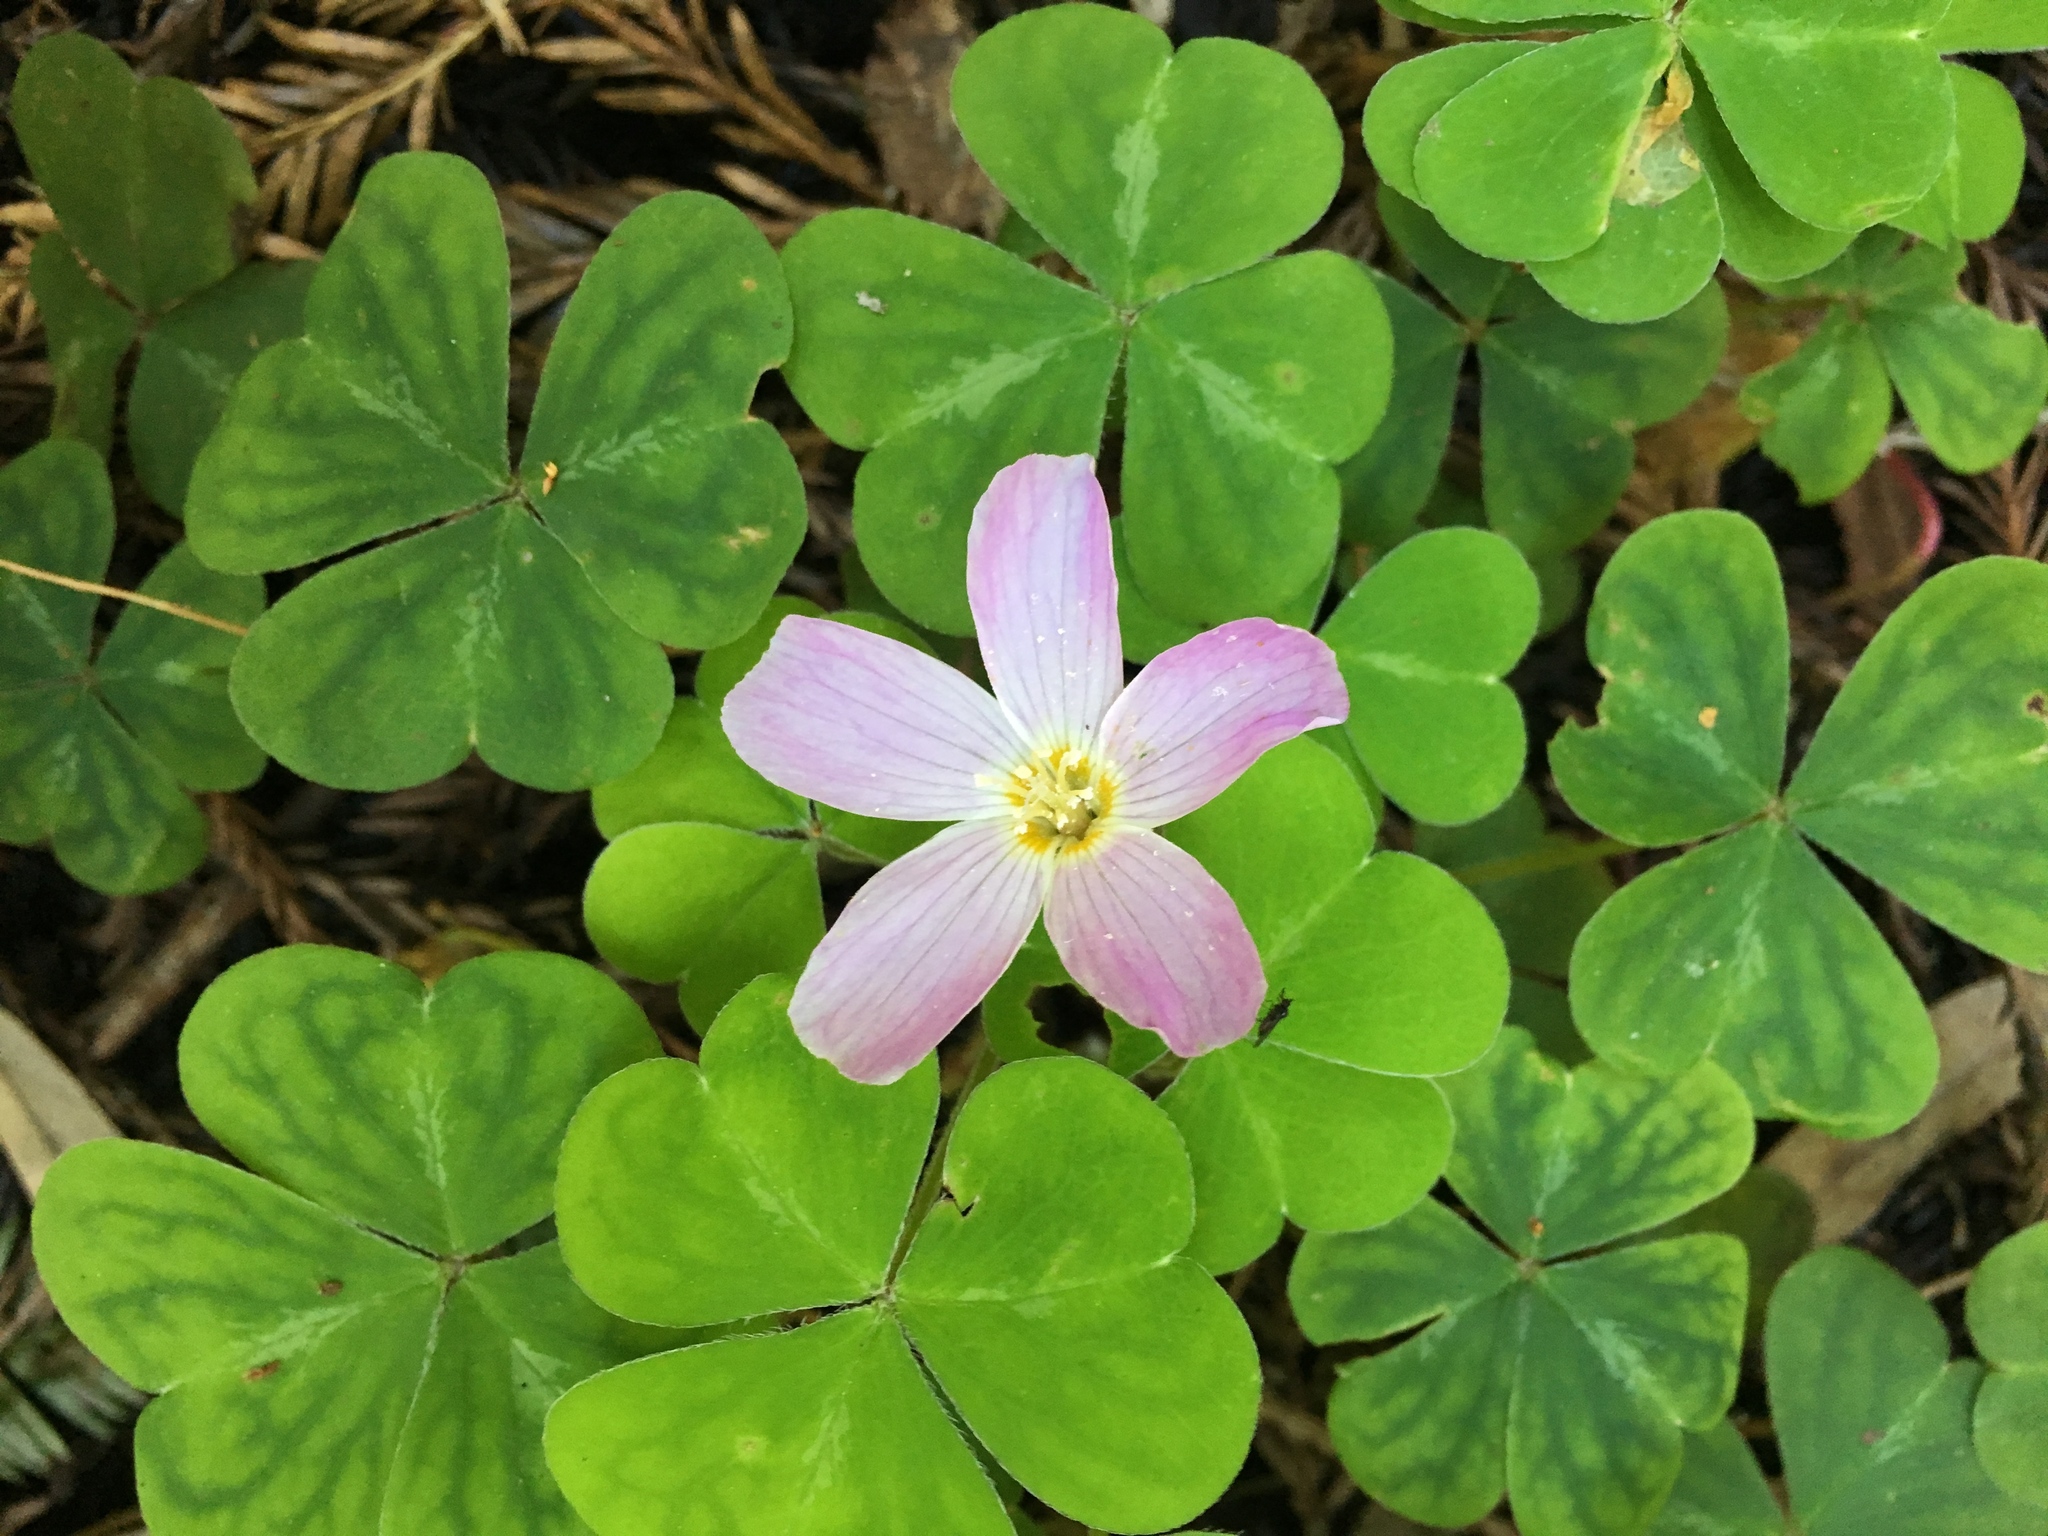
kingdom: Plantae
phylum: Tracheophyta
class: Magnoliopsida
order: Oxalidales
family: Oxalidaceae
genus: Oxalis
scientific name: Oxalis oregana
